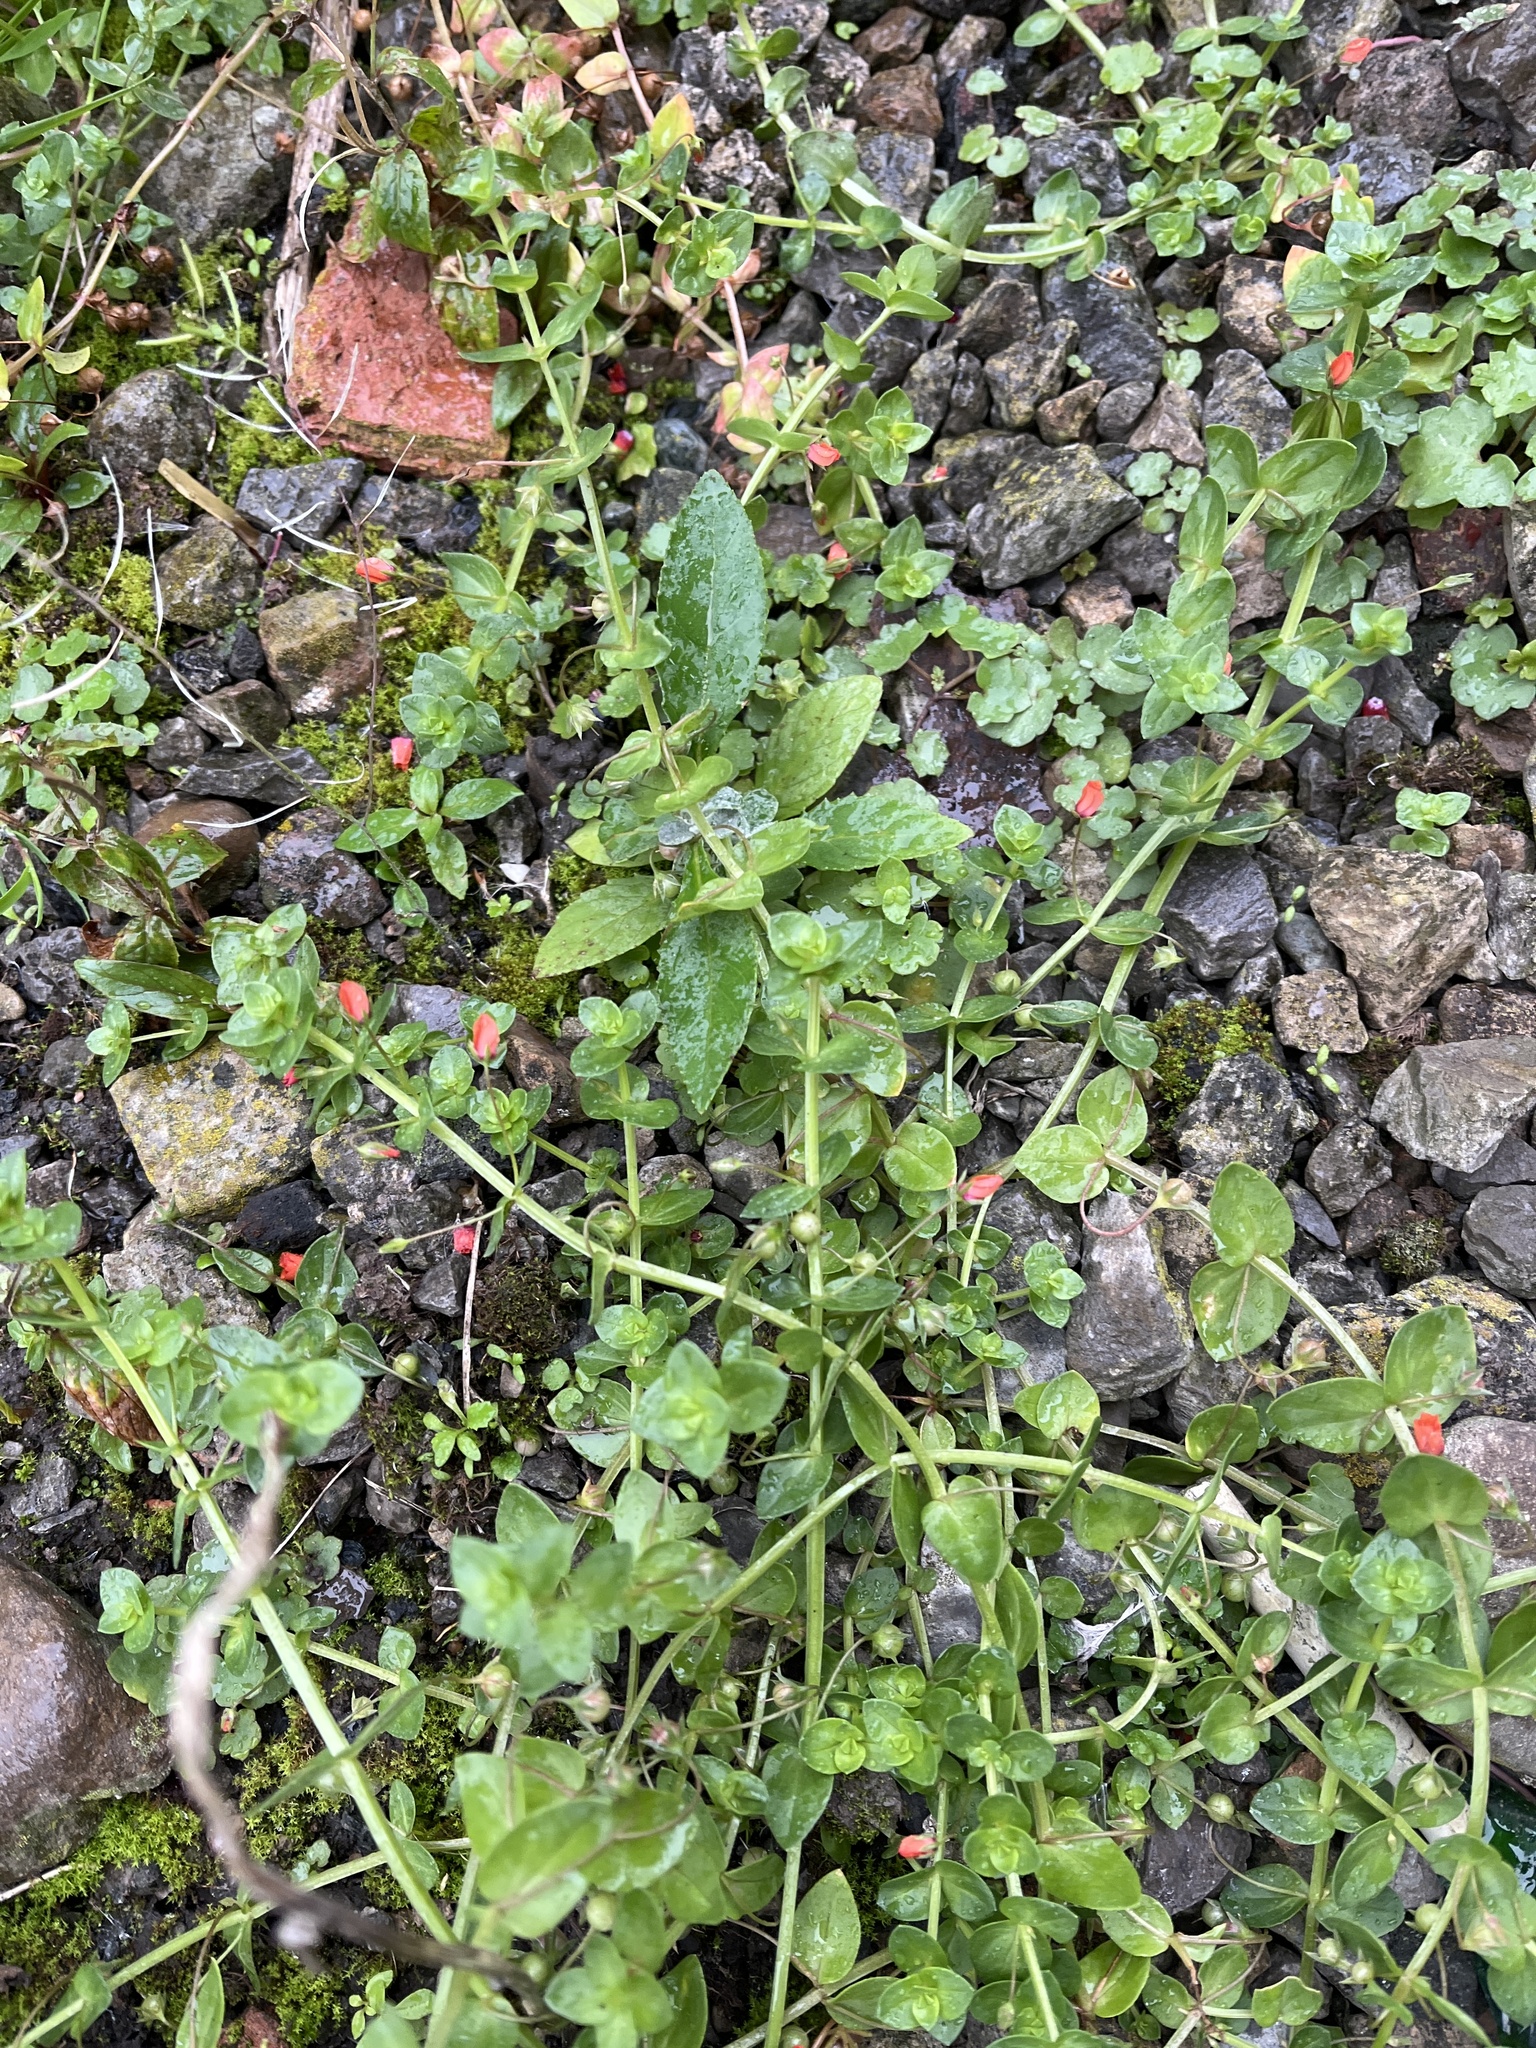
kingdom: Plantae
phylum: Tracheophyta
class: Magnoliopsida
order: Ericales
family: Primulaceae
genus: Lysimachia
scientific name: Lysimachia arvensis
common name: Scarlet pimpernel
